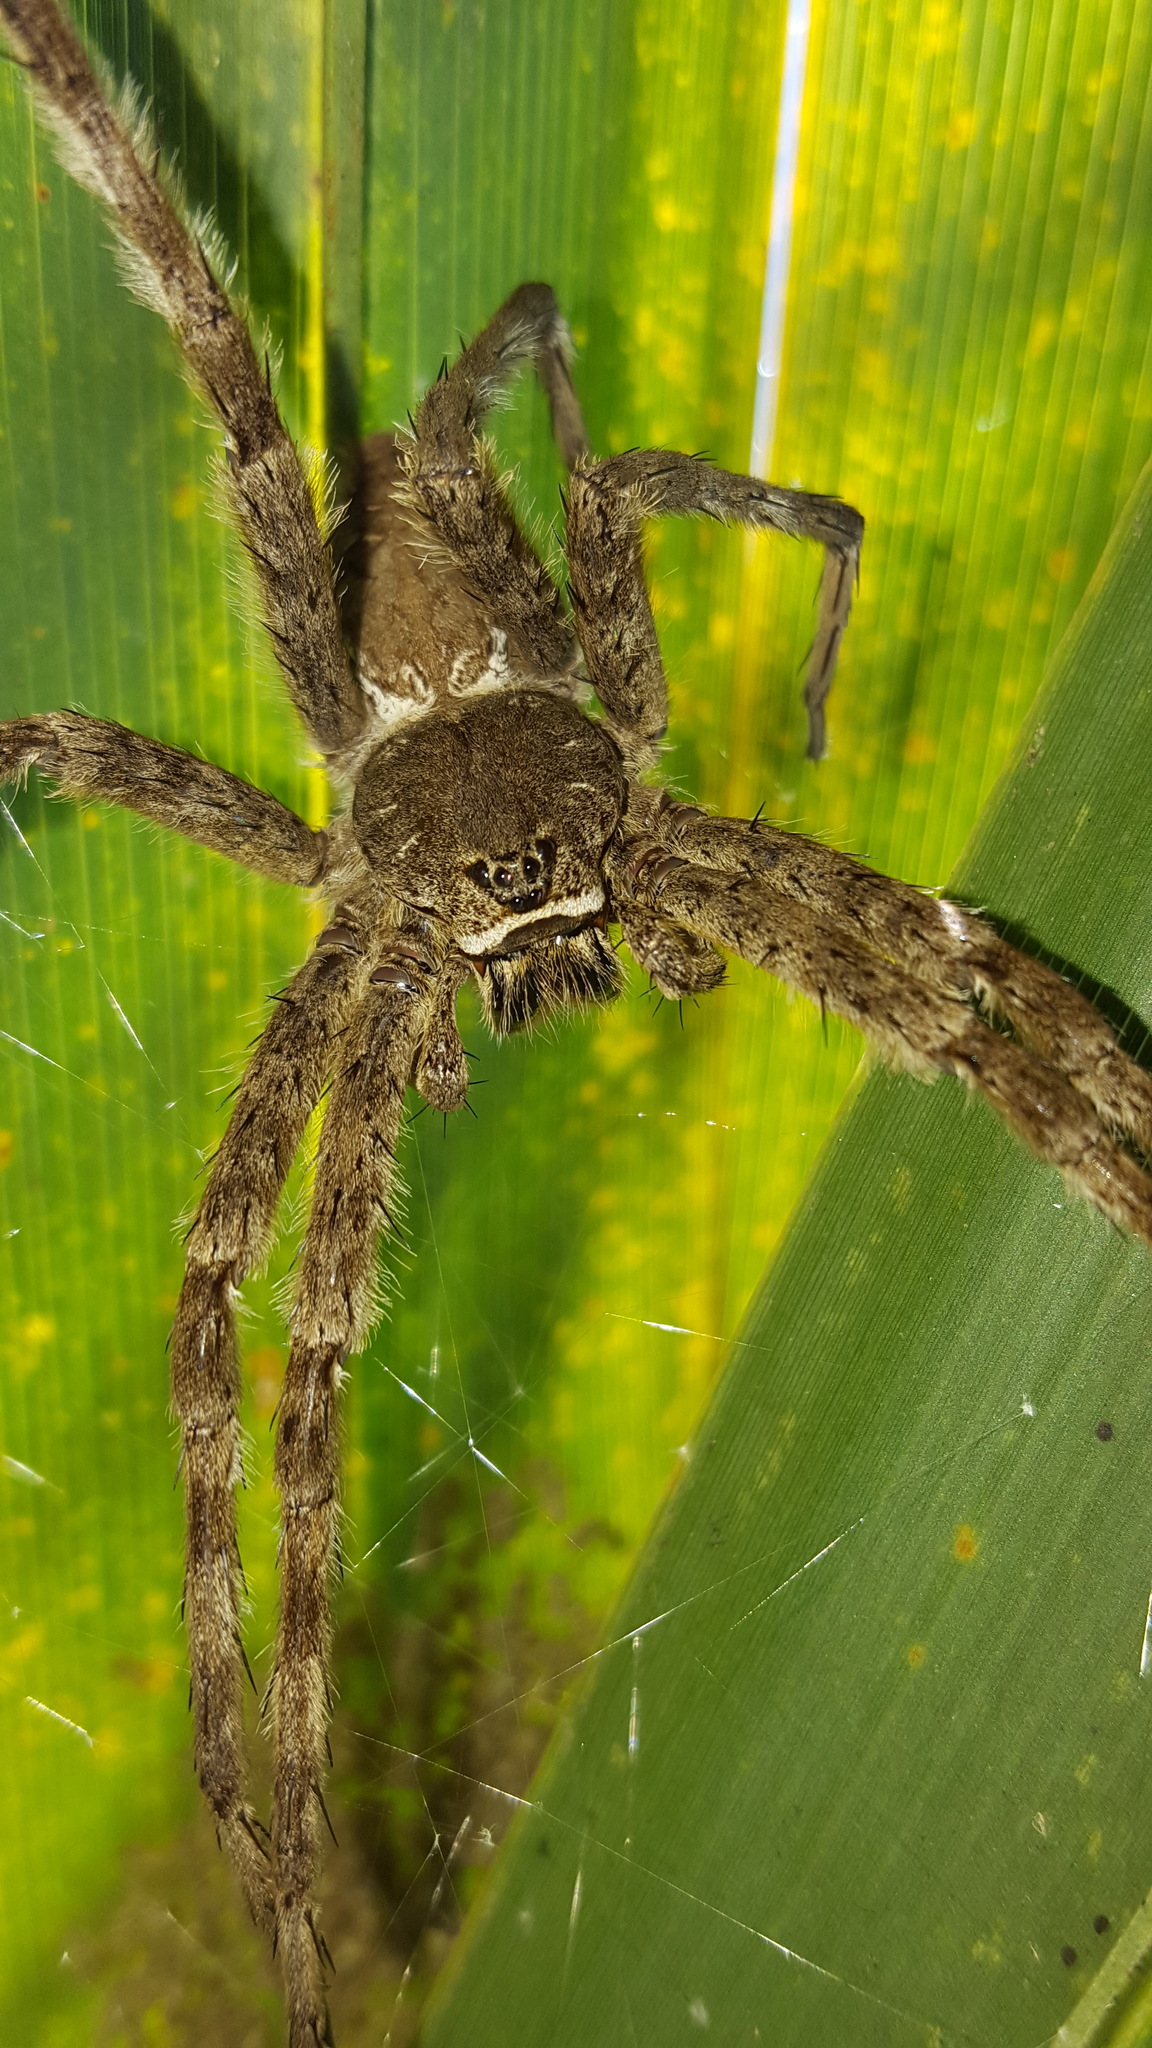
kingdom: Animalia
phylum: Arthropoda
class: Arachnida
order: Araneae
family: Pisauridae
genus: Dolomedes
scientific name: Dolomedes albineus
